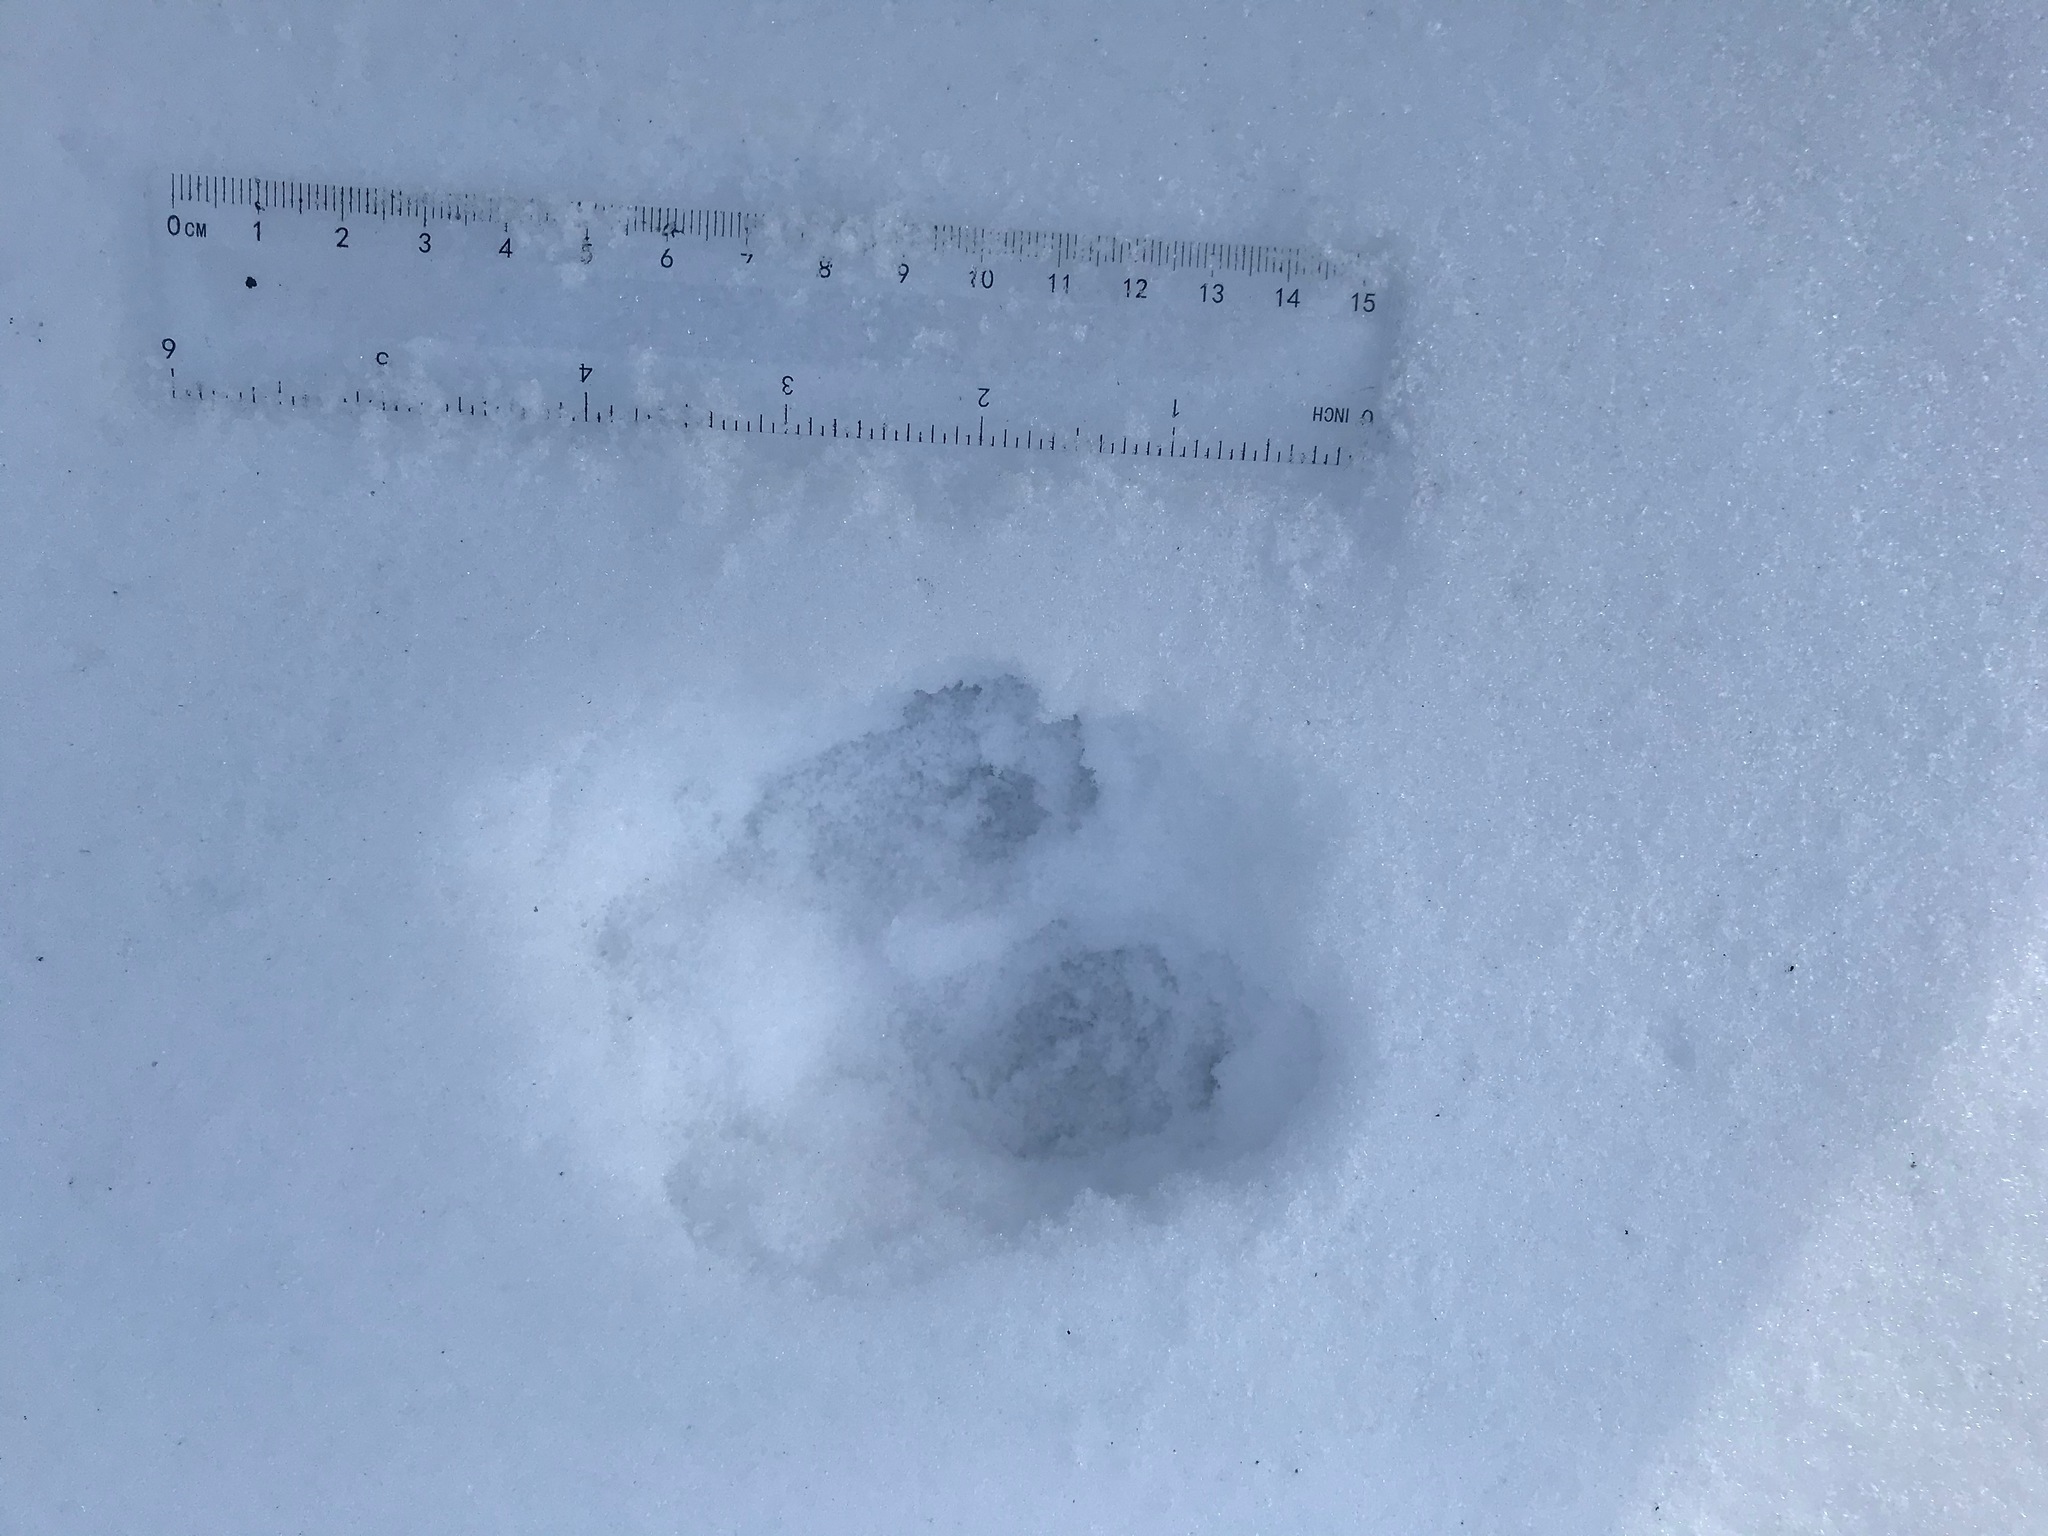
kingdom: Animalia
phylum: Chordata
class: Mammalia
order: Carnivora
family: Mustelidae
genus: Mustela
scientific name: Mustela
